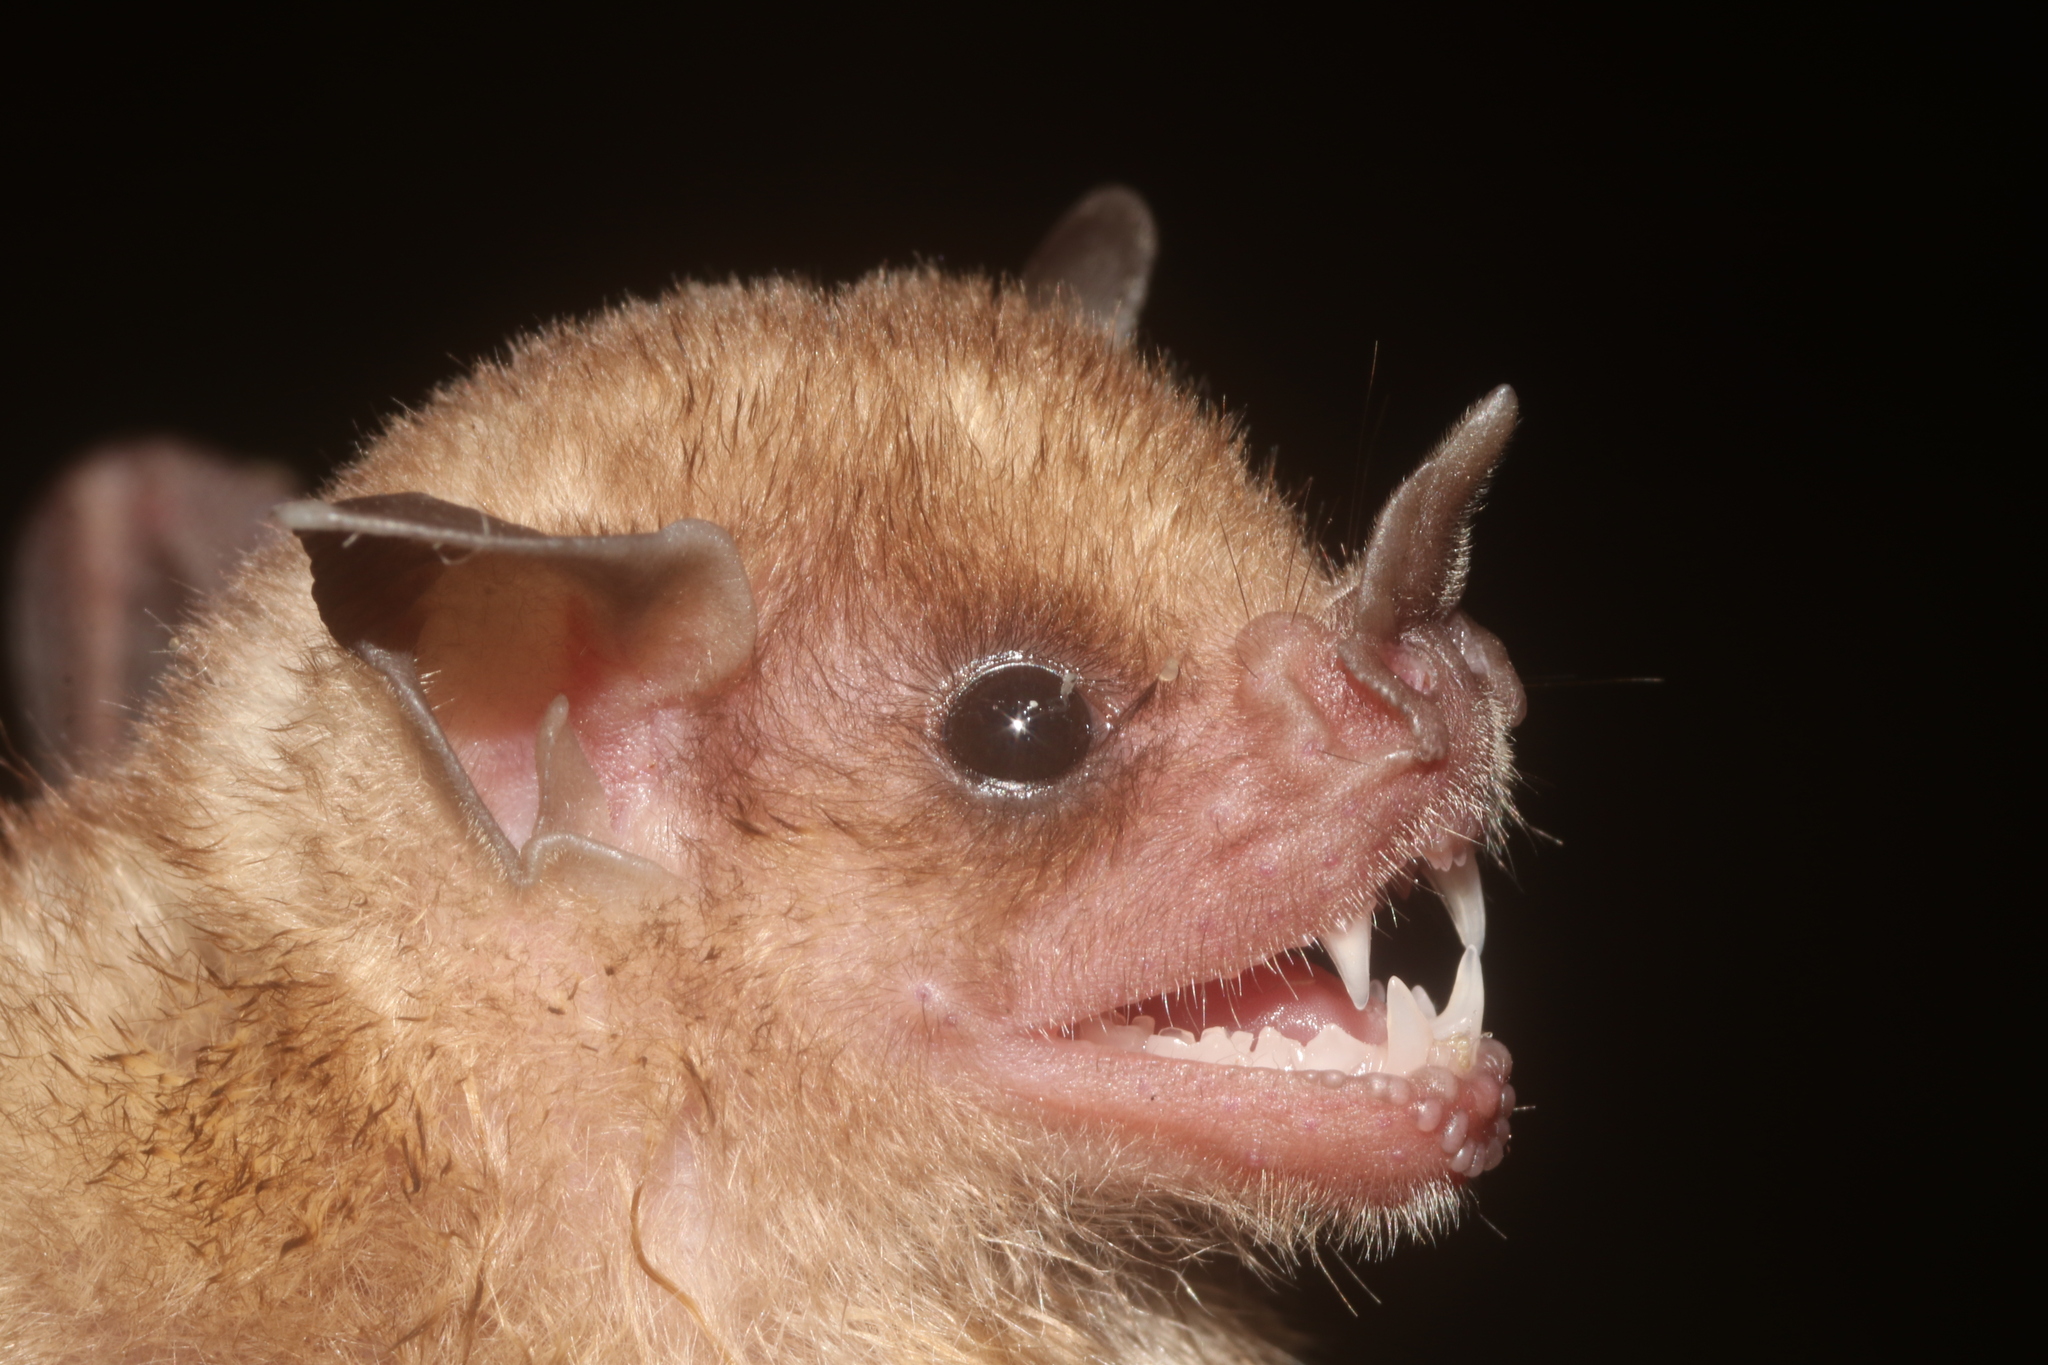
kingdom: Animalia
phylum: Chordata
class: Mammalia
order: Chiroptera
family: Phyllostomidae
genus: Sturnira
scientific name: Sturnira parvidens
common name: Northern yellow-shouldered bat
